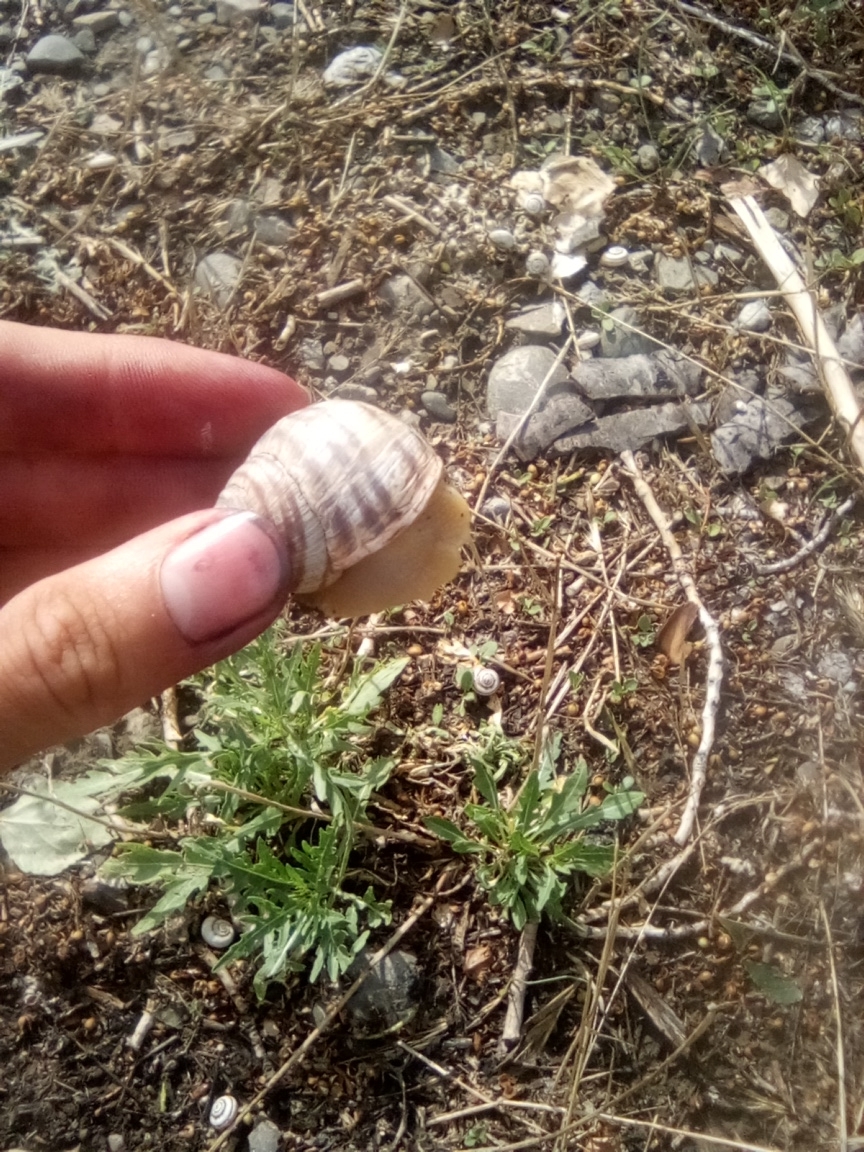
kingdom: Animalia
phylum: Mollusca
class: Gastropoda
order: Stylommatophora
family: Helicidae
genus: Helix
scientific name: Helix albescens
